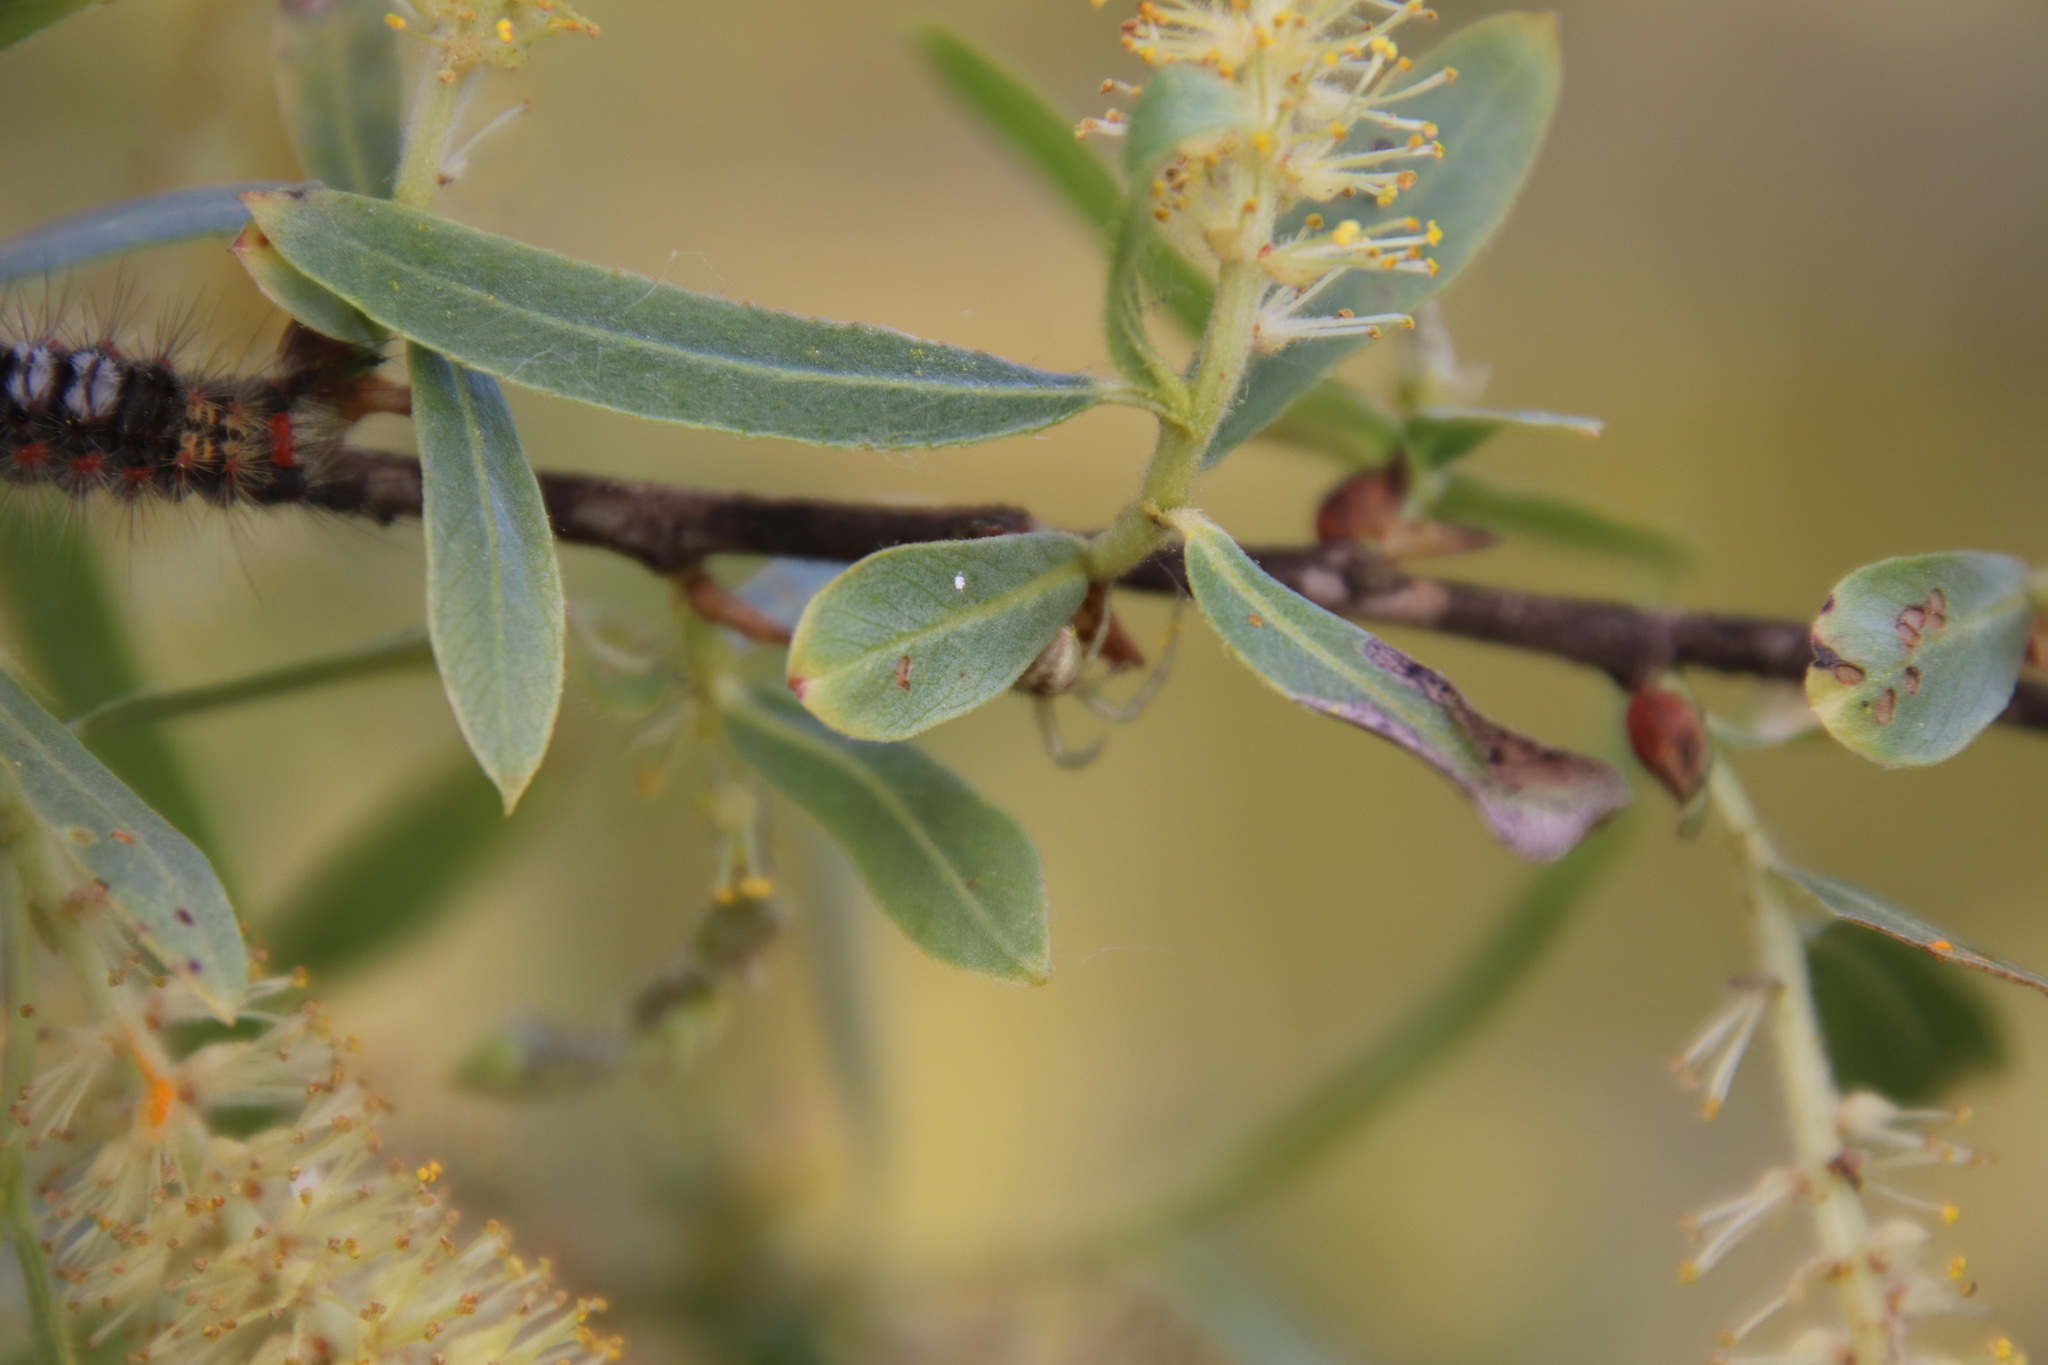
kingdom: Plantae
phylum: Tracheophyta
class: Magnoliopsida
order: Malpighiales
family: Salicaceae
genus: Salix
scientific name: Salix gooddingii
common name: Goodding's willow
